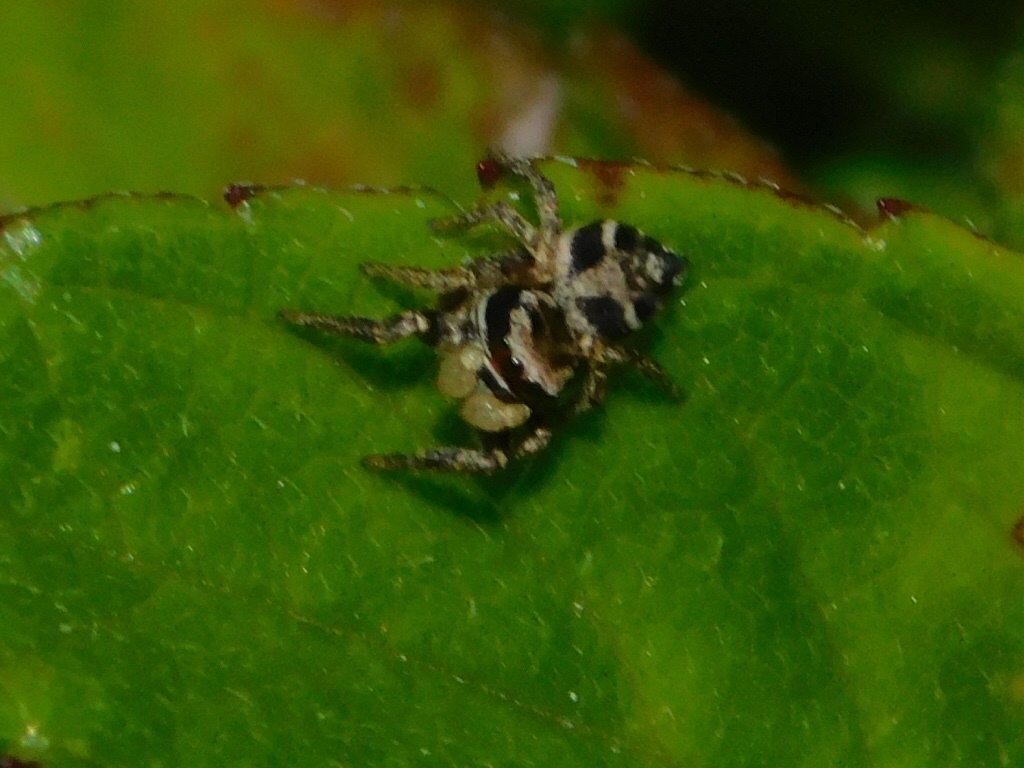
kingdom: Animalia
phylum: Arthropoda
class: Arachnida
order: Araneae
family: Salticidae
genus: Habronattus
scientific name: Habronattus brunneus
